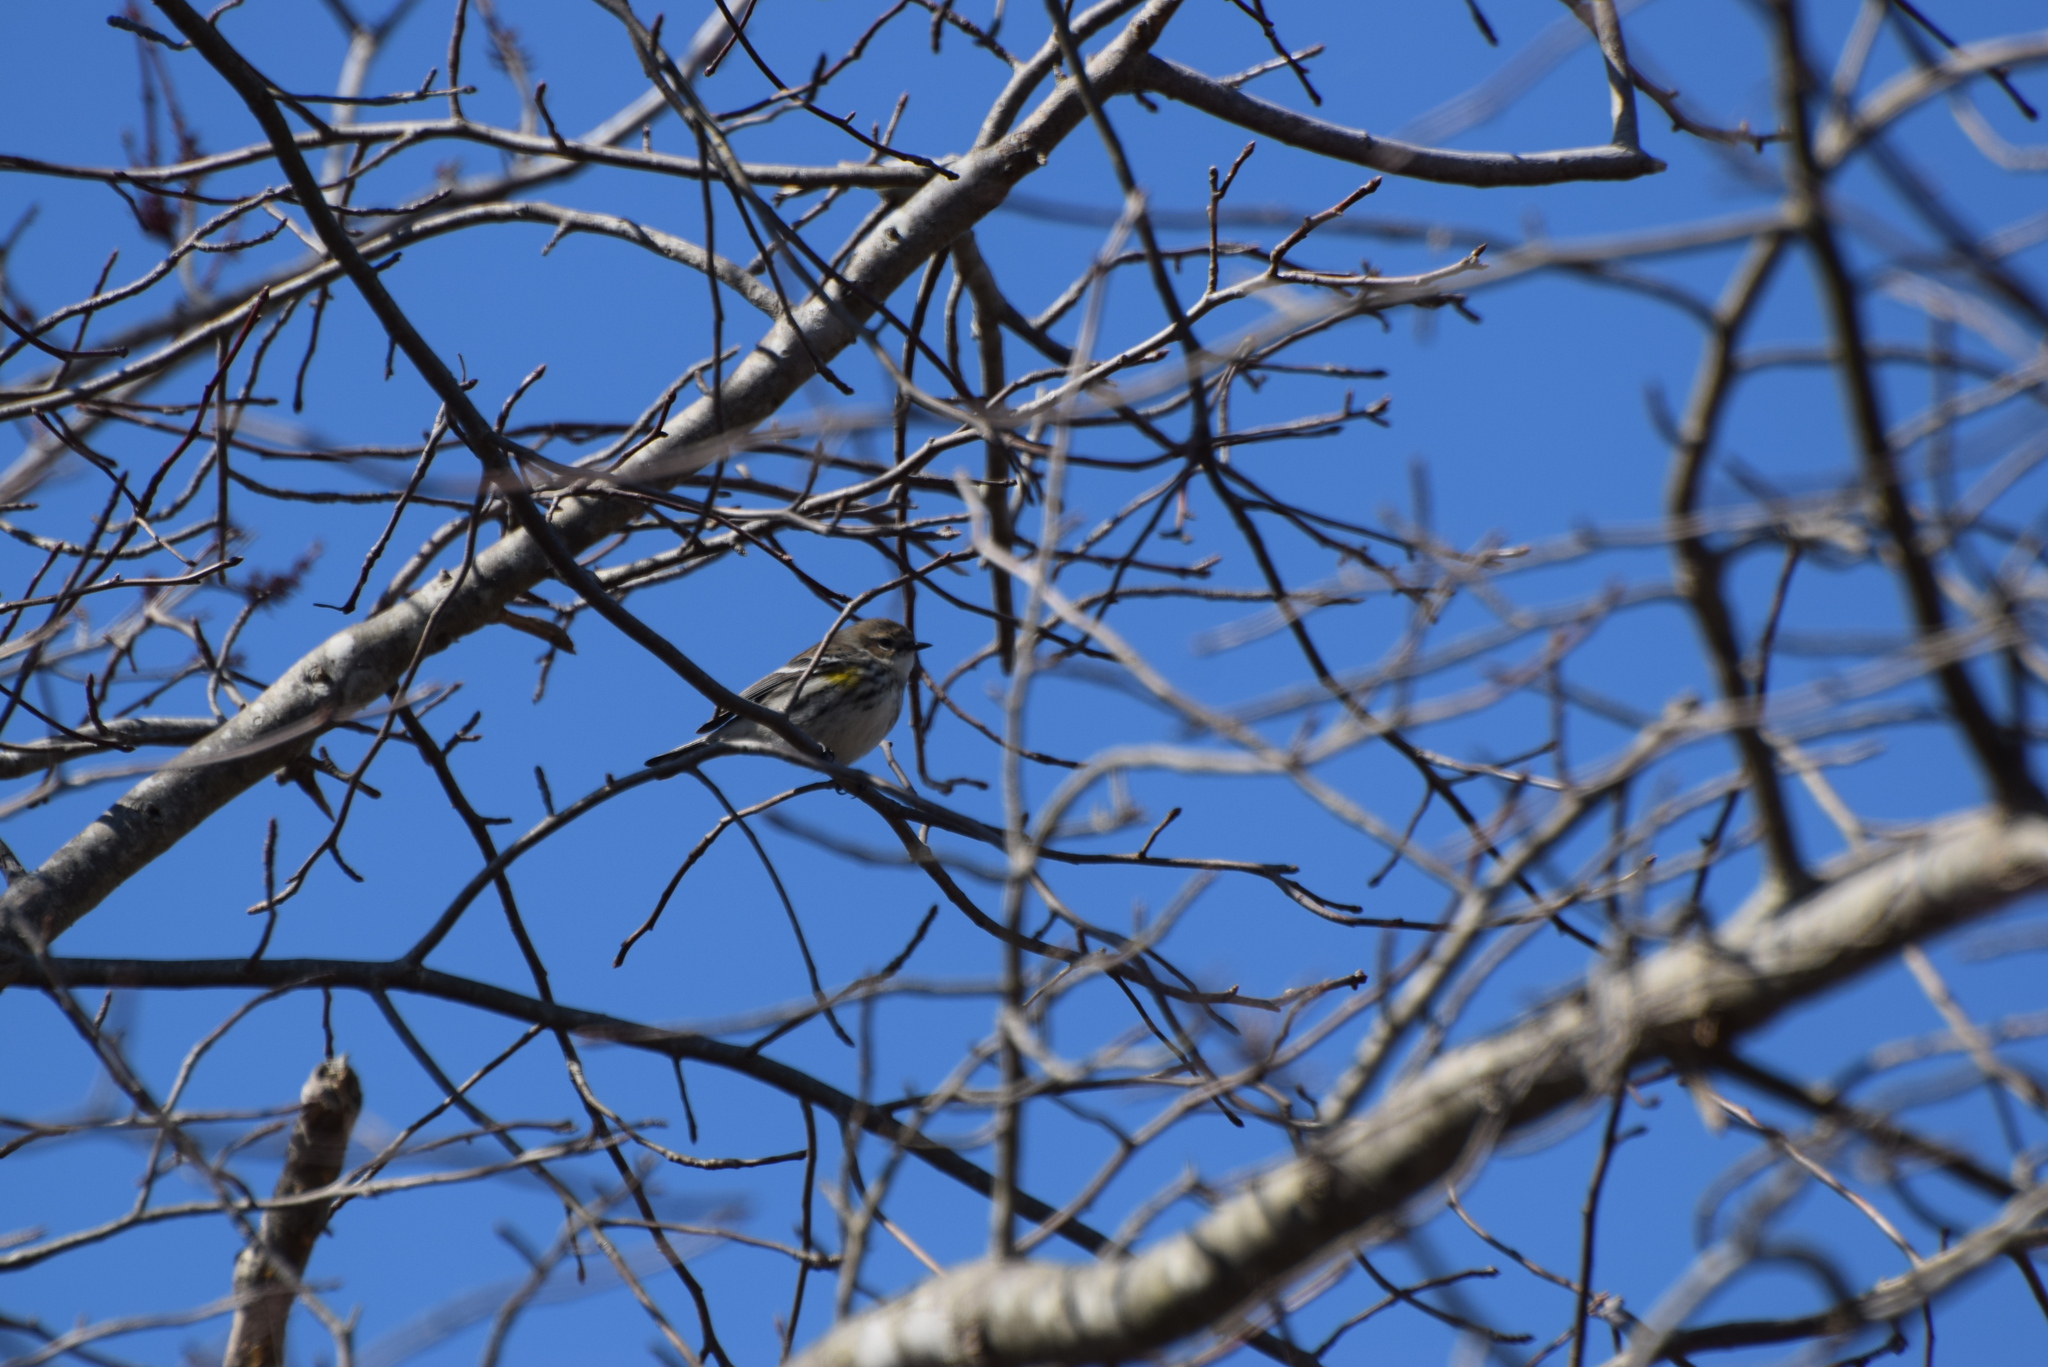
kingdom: Animalia
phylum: Chordata
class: Aves
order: Passeriformes
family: Parulidae
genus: Setophaga
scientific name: Setophaga coronata
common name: Myrtle warbler
